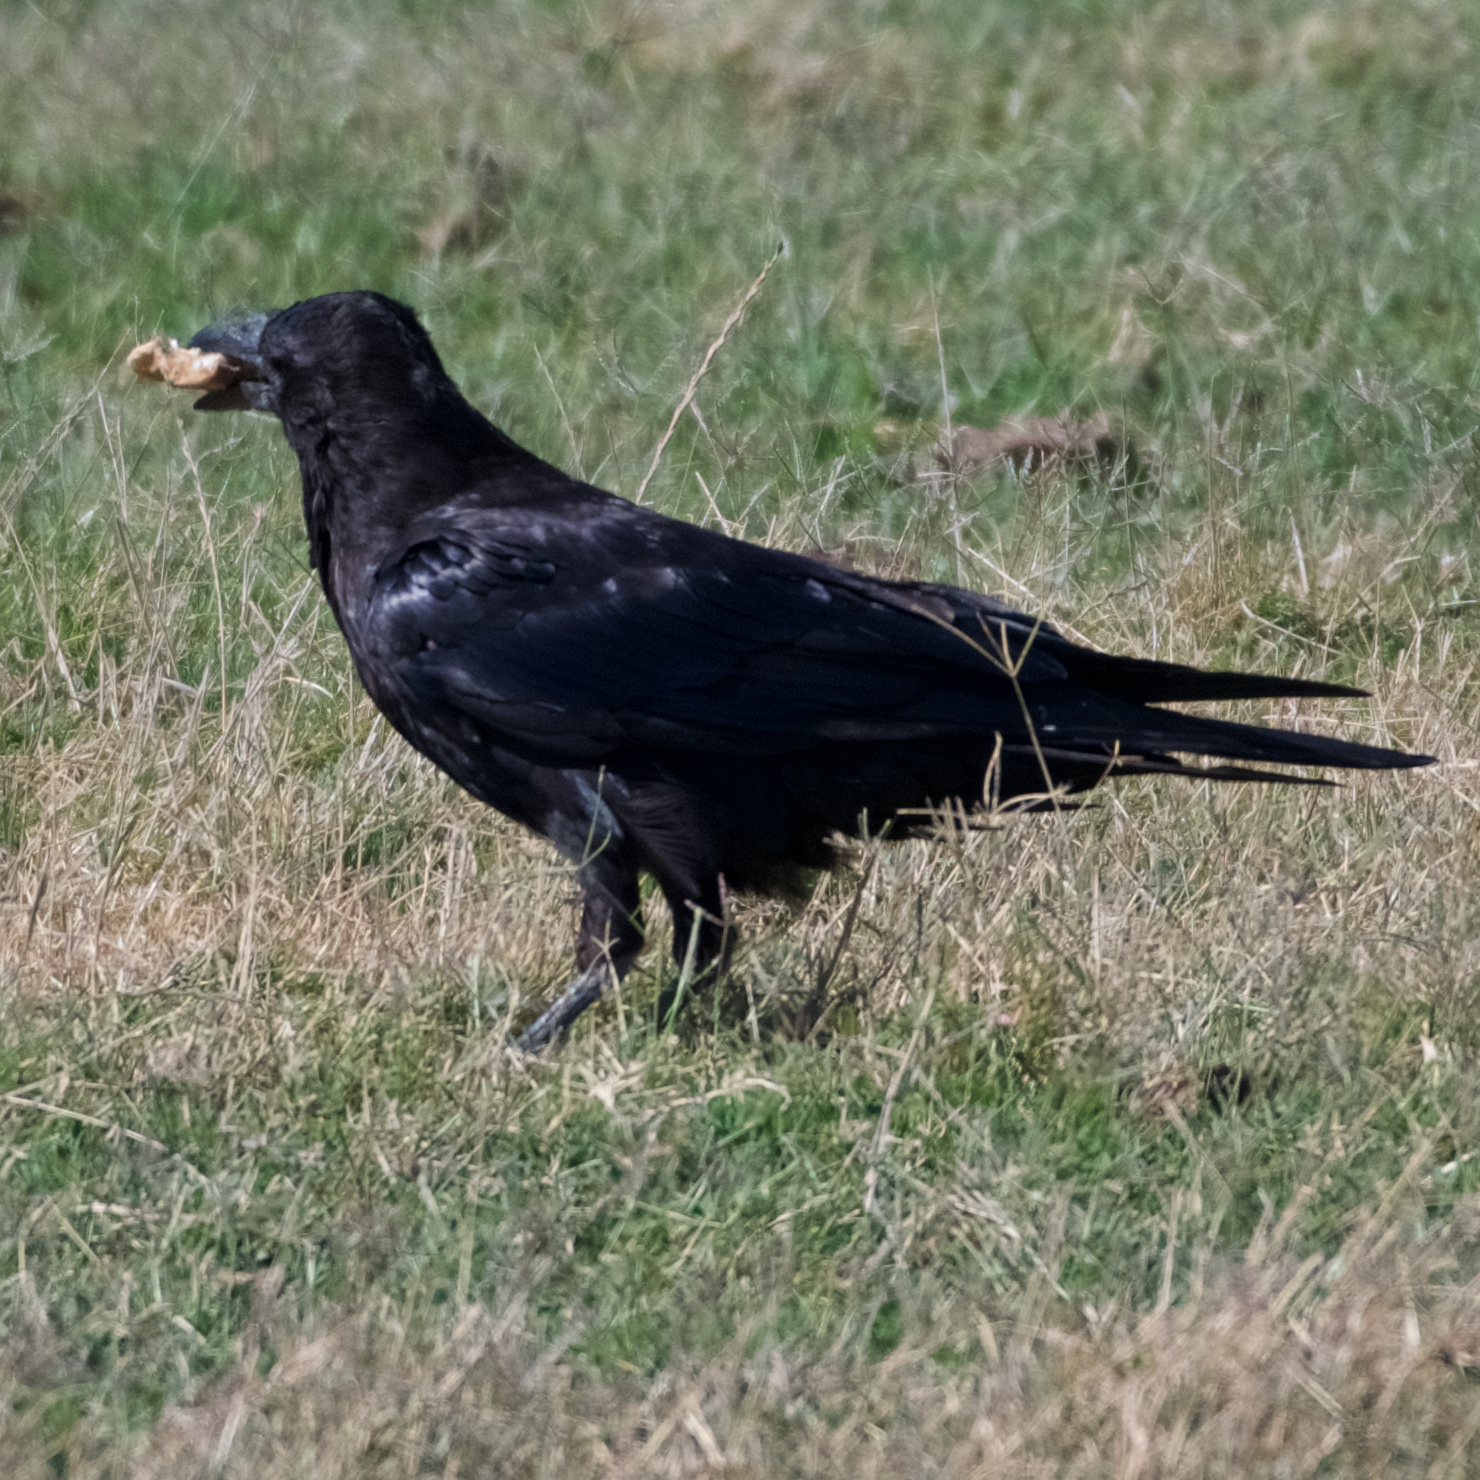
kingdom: Animalia
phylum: Chordata
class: Aves
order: Passeriformes
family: Corvidae
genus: Corvus
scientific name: Corvus corax
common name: Common raven
